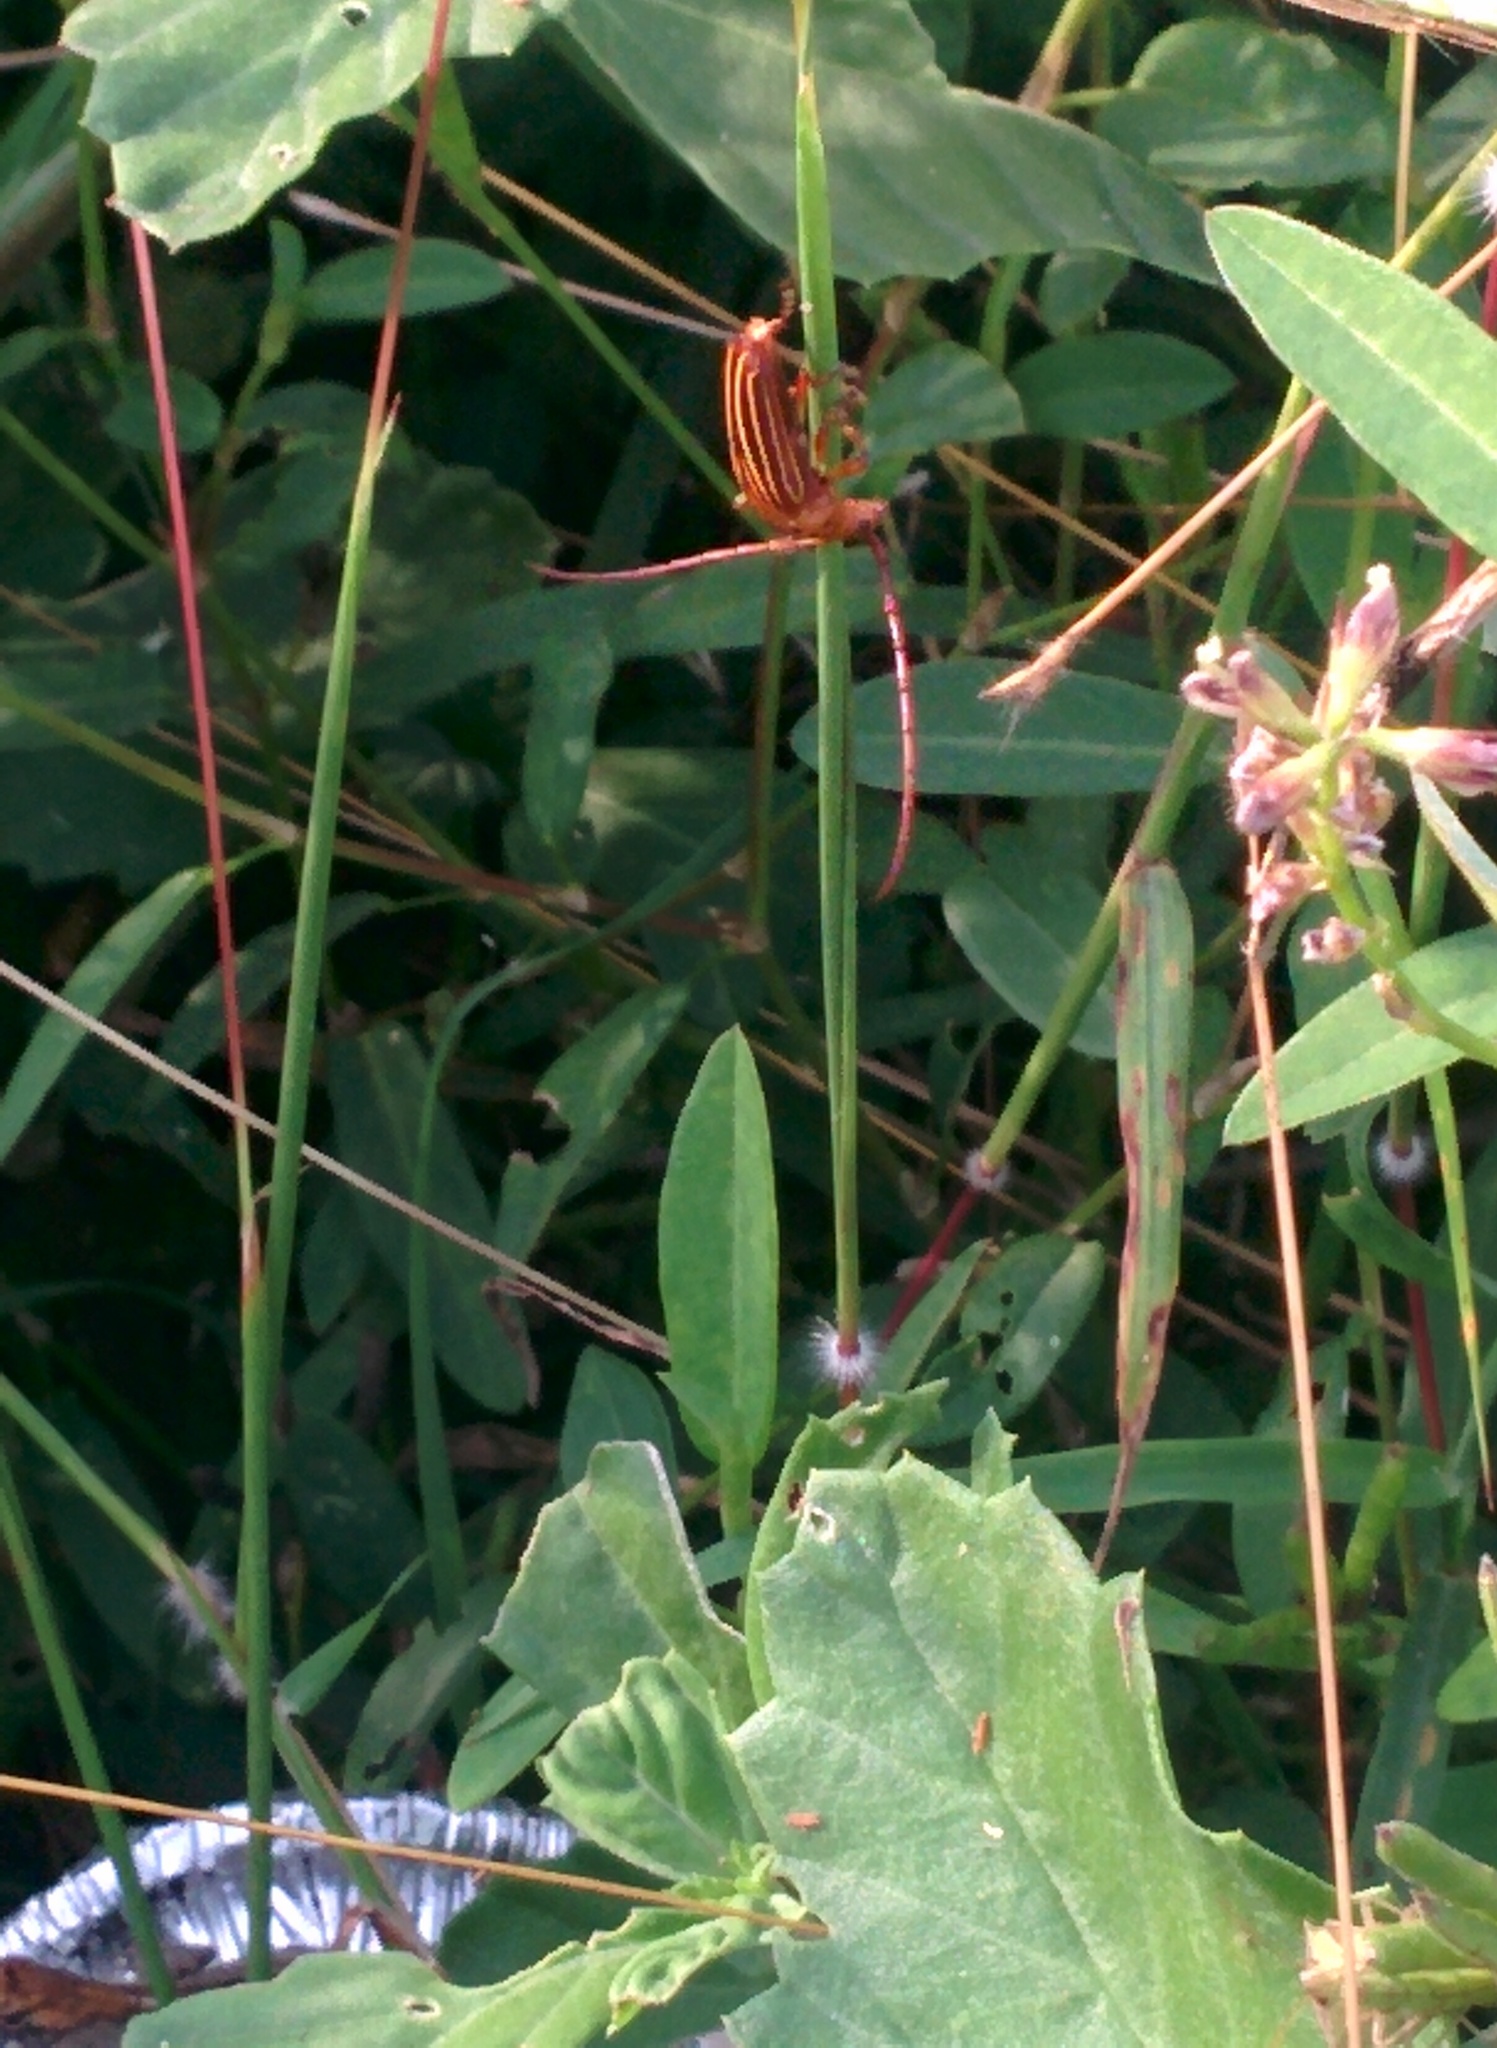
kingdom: Animalia
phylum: Arthropoda
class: Insecta
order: Coleoptera
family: Cerambycidae
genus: Oxymerus
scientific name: Oxymerus aculeatus
